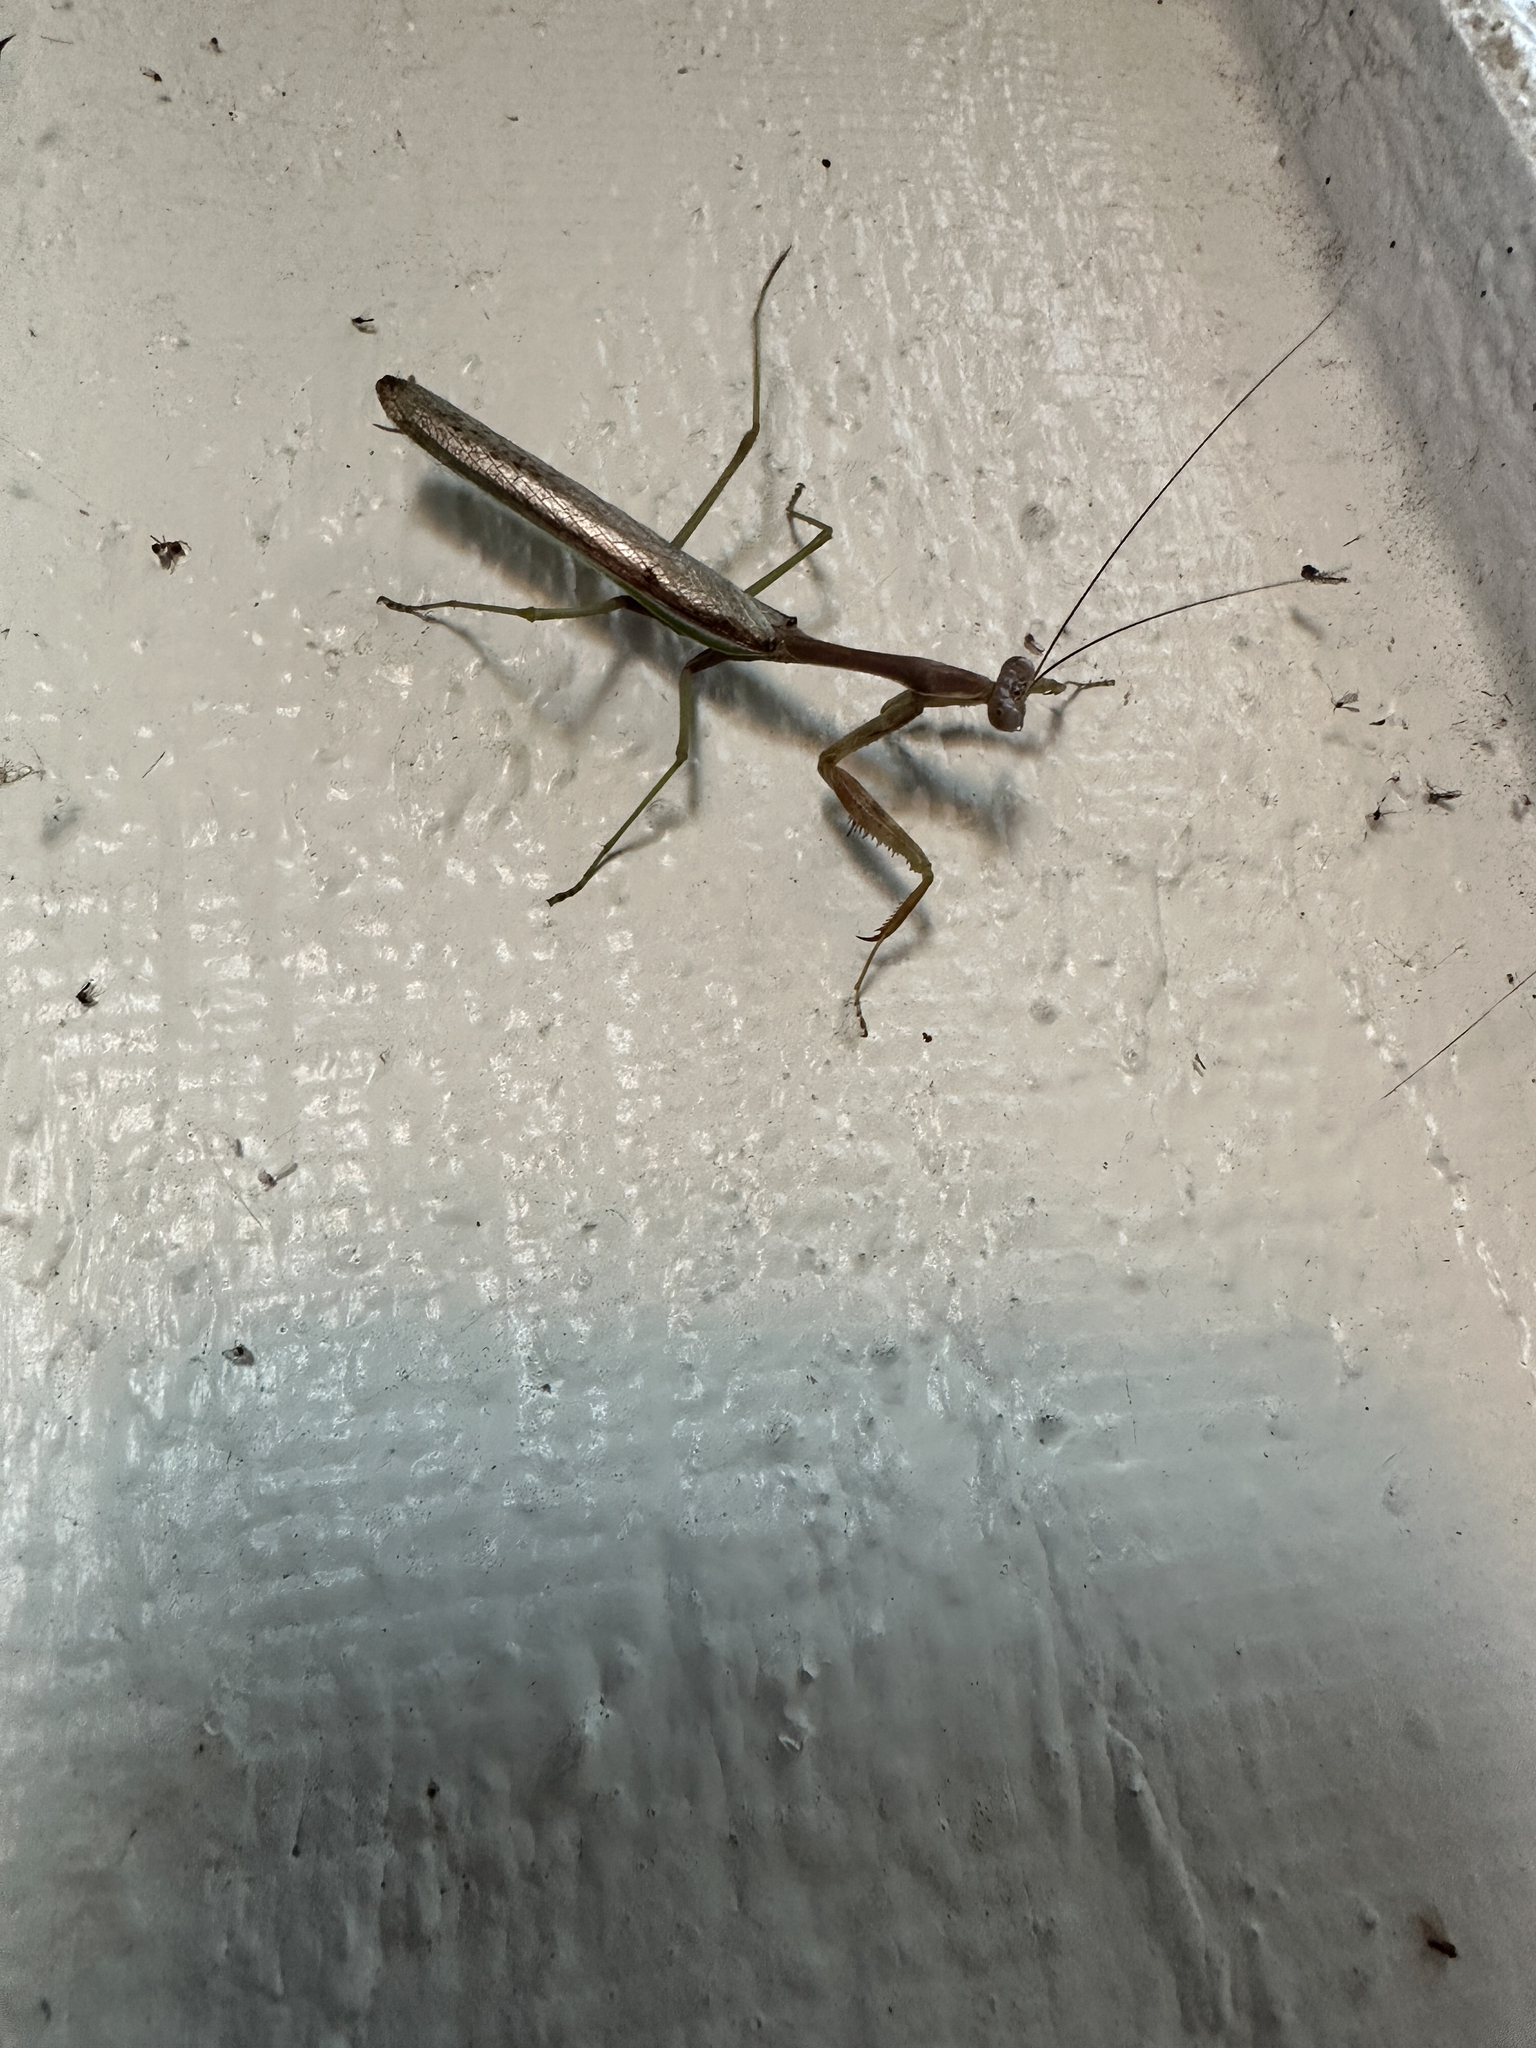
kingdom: Animalia
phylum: Arthropoda
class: Insecta
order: Mantodea
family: Mantidae
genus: Stagmomantis
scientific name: Stagmomantis limbata
